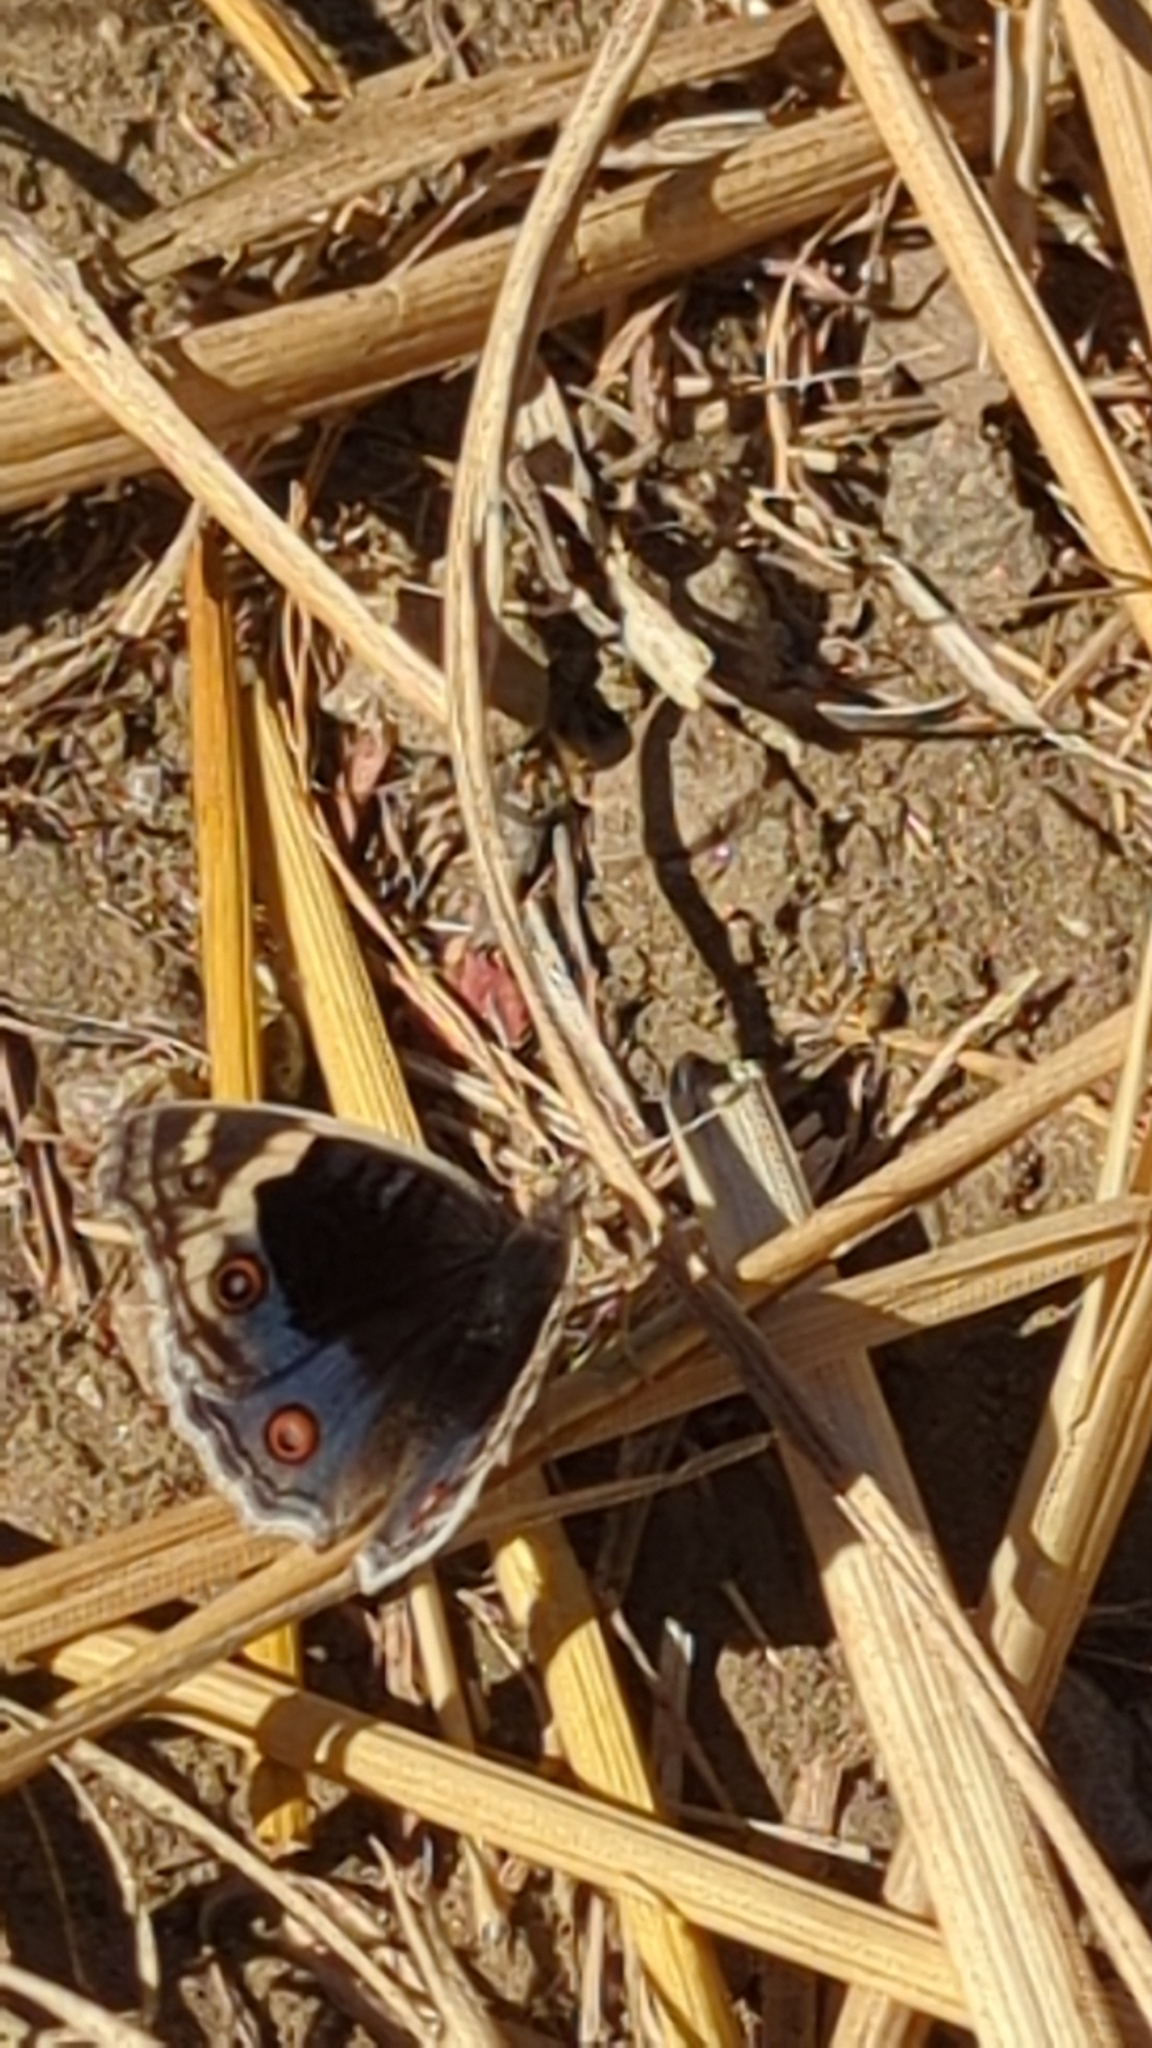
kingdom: Animalia
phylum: Arthropoda
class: Insecta
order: Lepidoptera
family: Nymphalidae
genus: Junonia
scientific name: Junonia orithya
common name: Blue pansy
